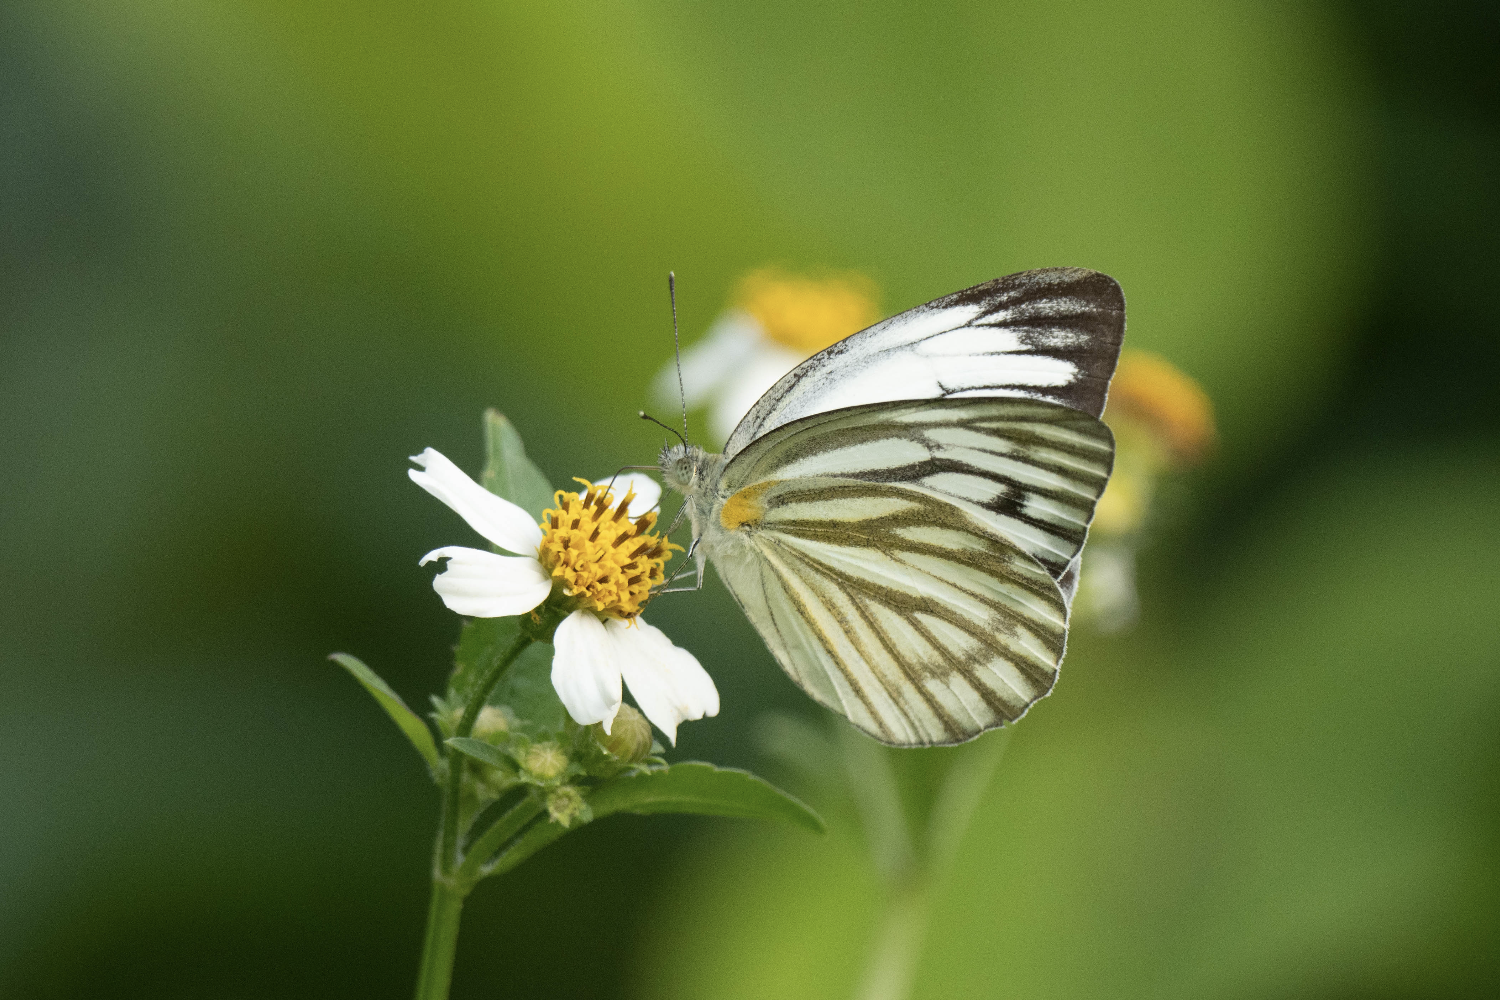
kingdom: Animalia
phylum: Arthropoda
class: Insecta
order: Lepidoptera
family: Pieridae
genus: Cepora
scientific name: Cepora nerissa
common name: Common gull
